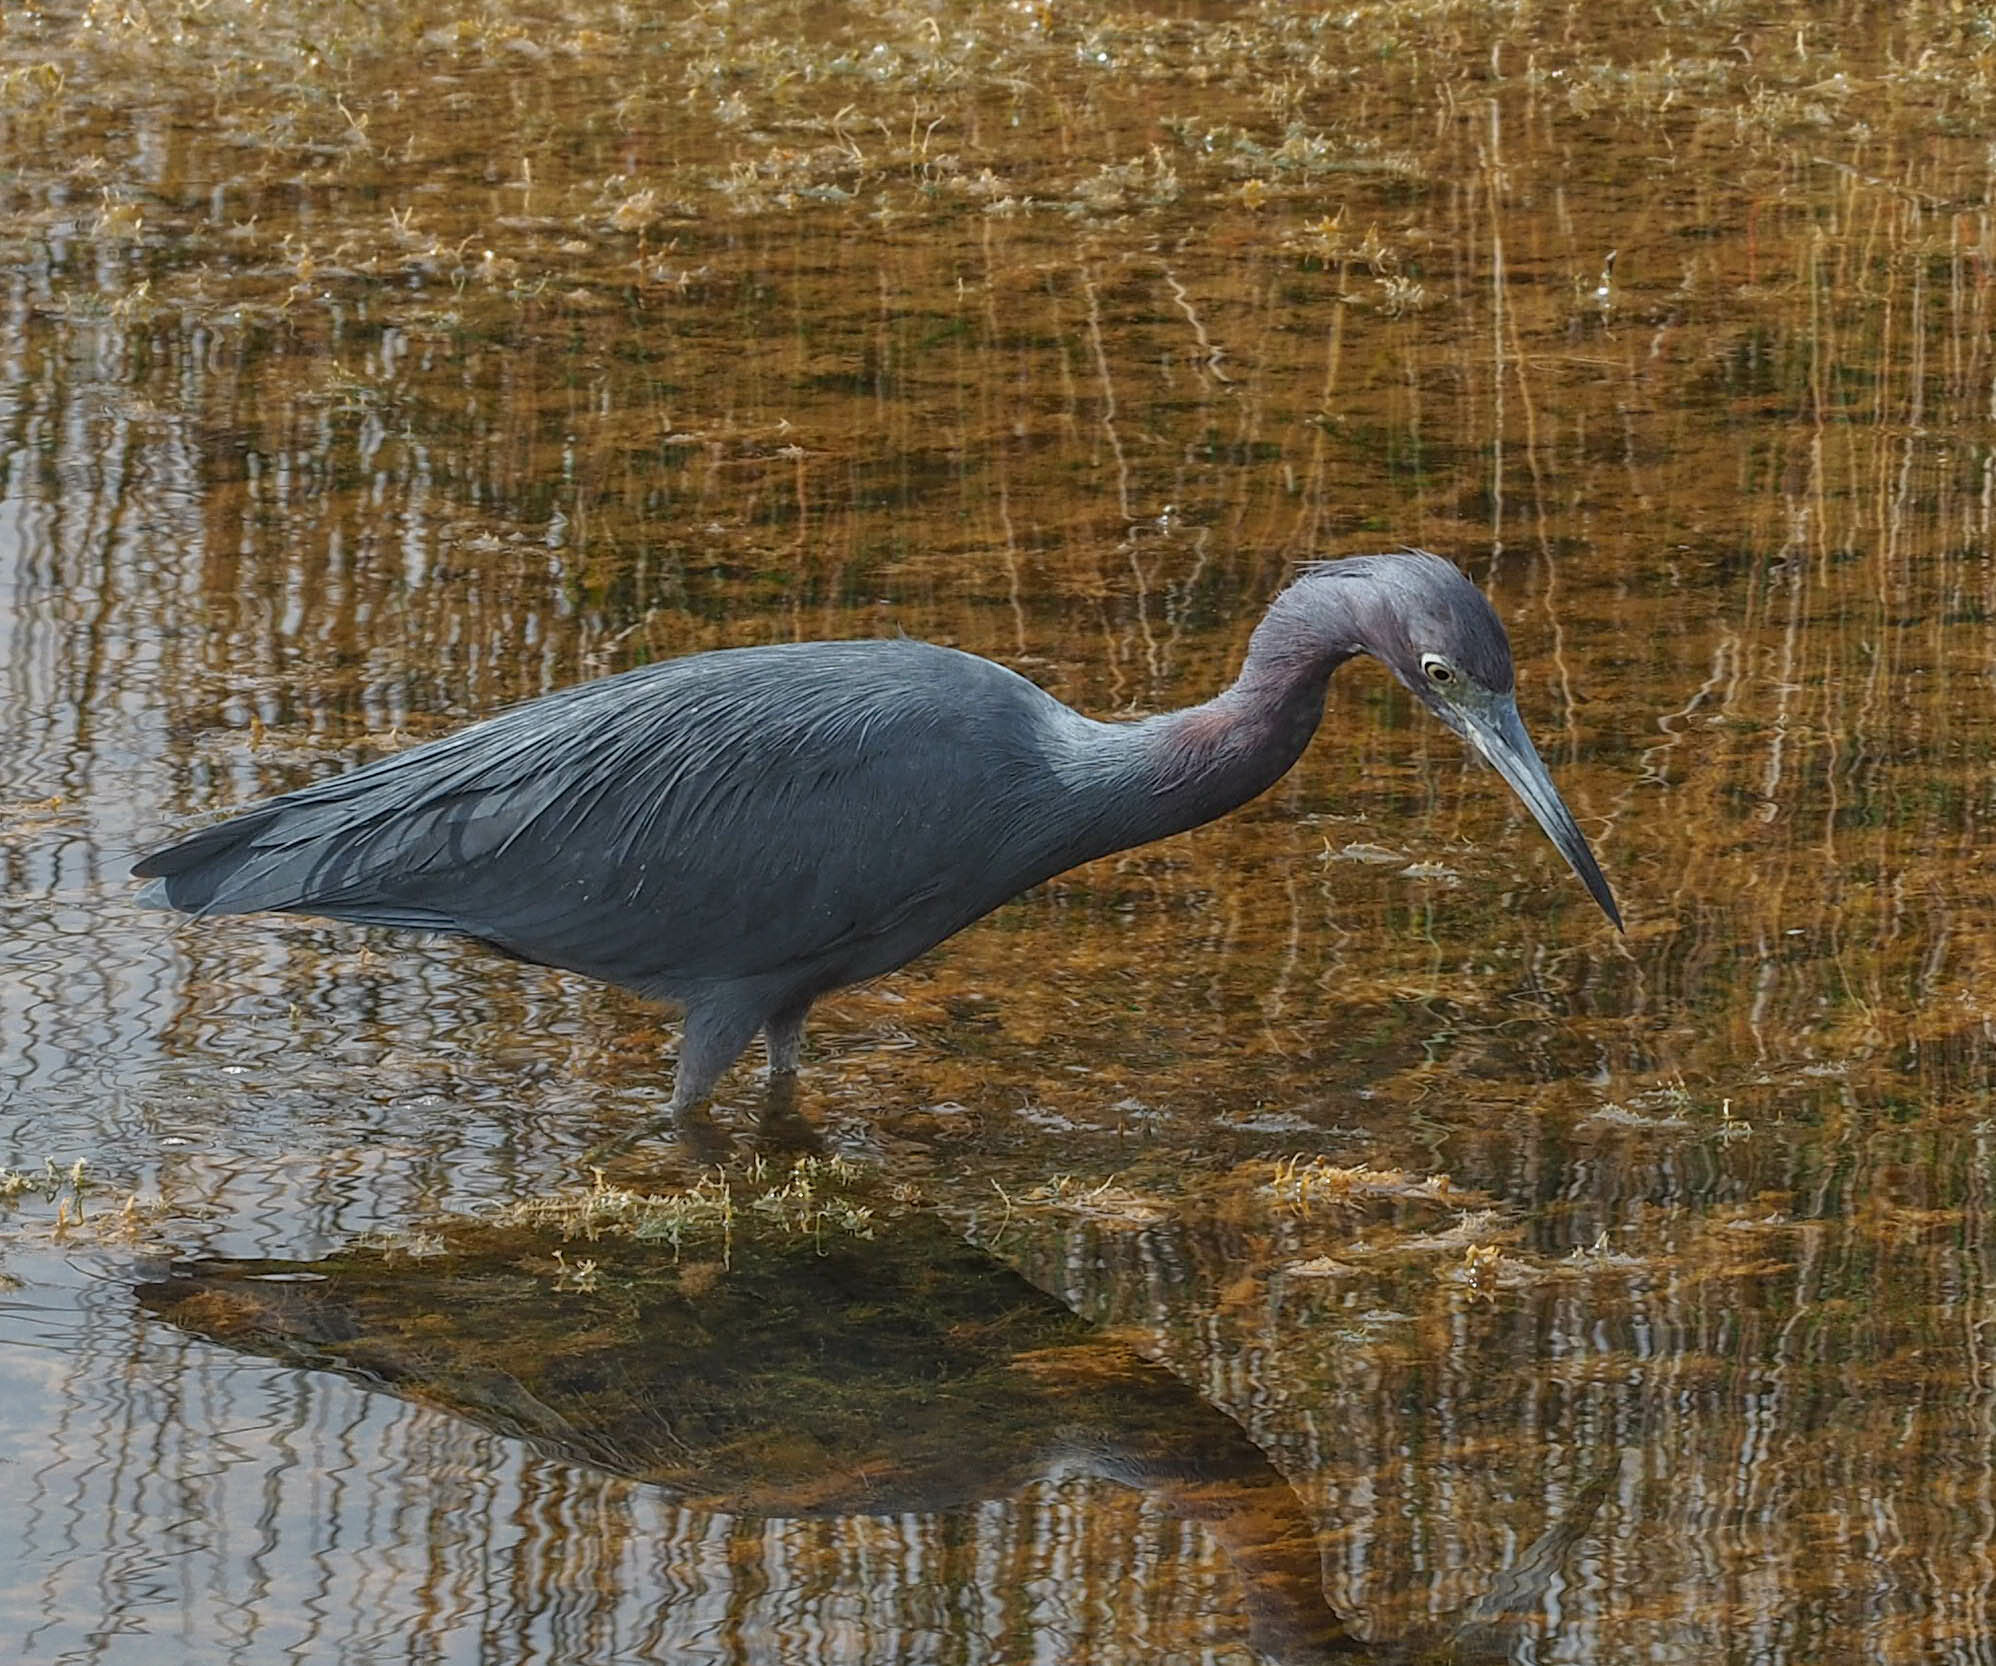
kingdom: Animalia
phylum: Chordata
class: Aves
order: Pelecaniformes
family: Ardeidae
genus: Egretta
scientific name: Egretta caerulea
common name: Little blue heron
